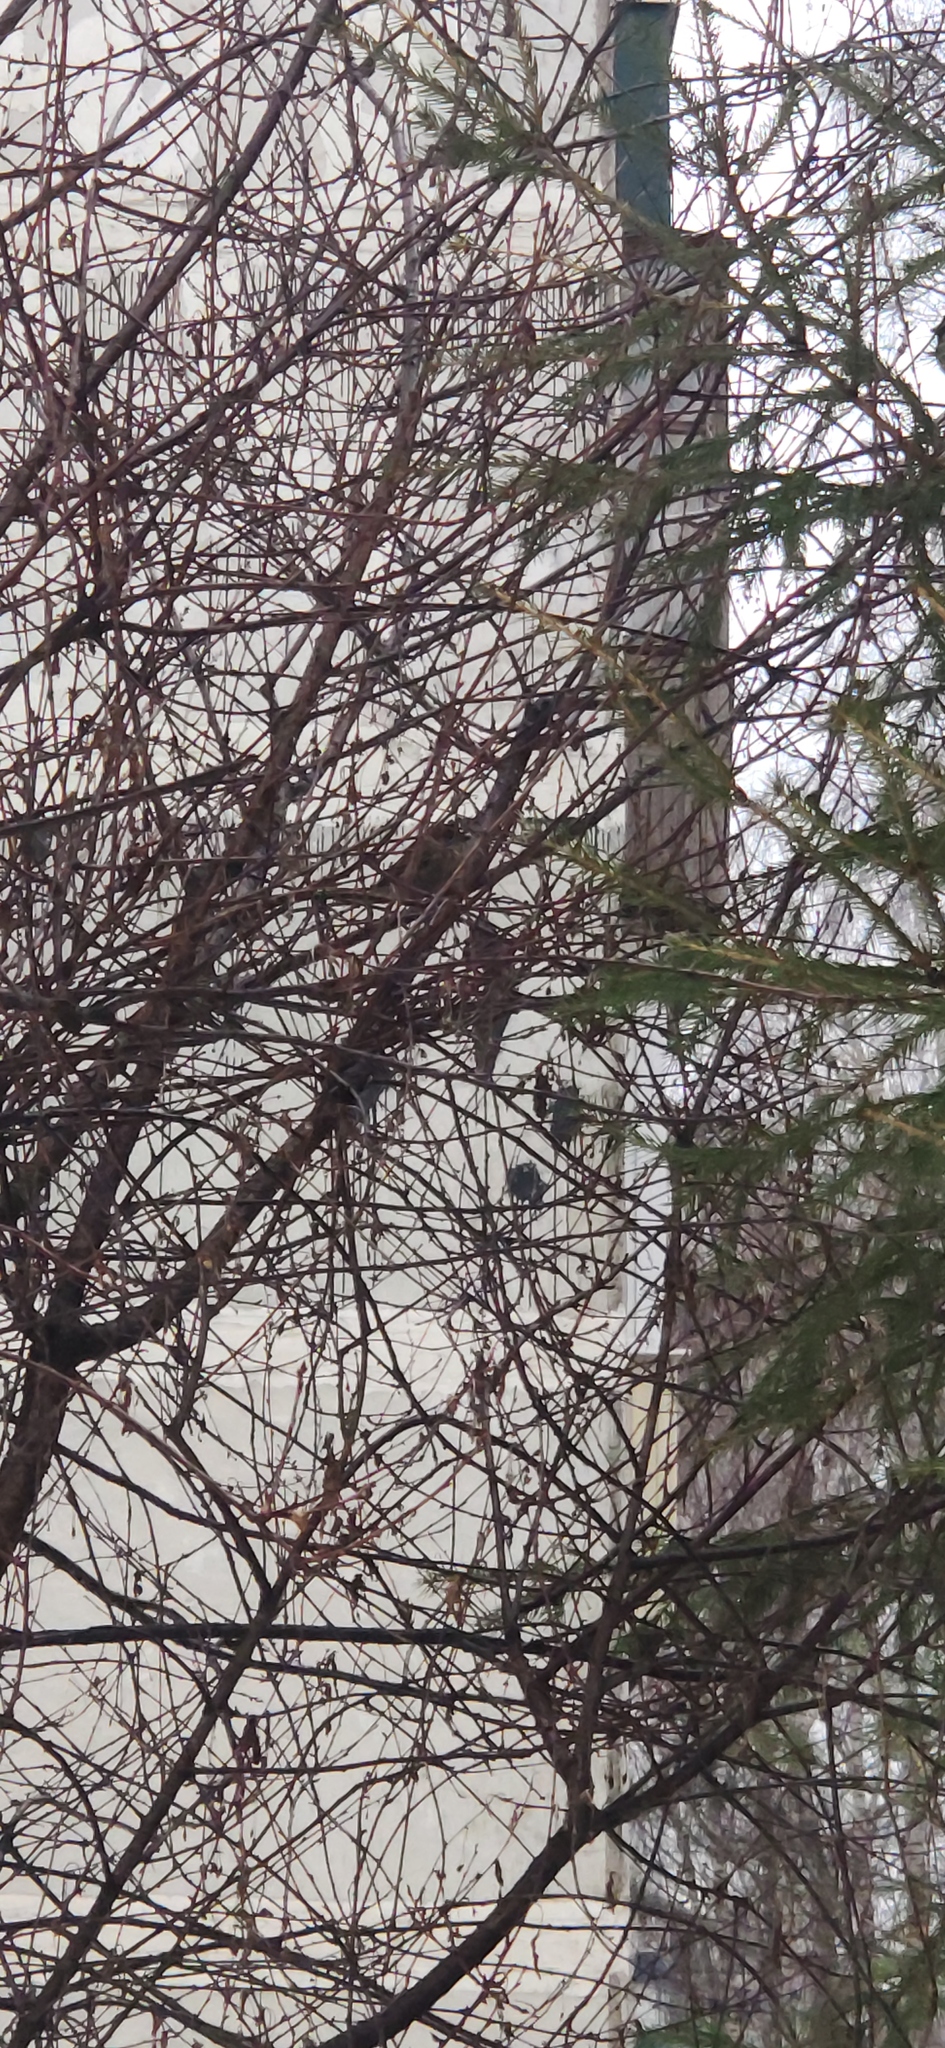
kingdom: Animalia
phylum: Chordata
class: Aves
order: Passeriformes
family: Passeridae
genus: Passer
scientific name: Passer montanus
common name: Eurasian tree sparrow
